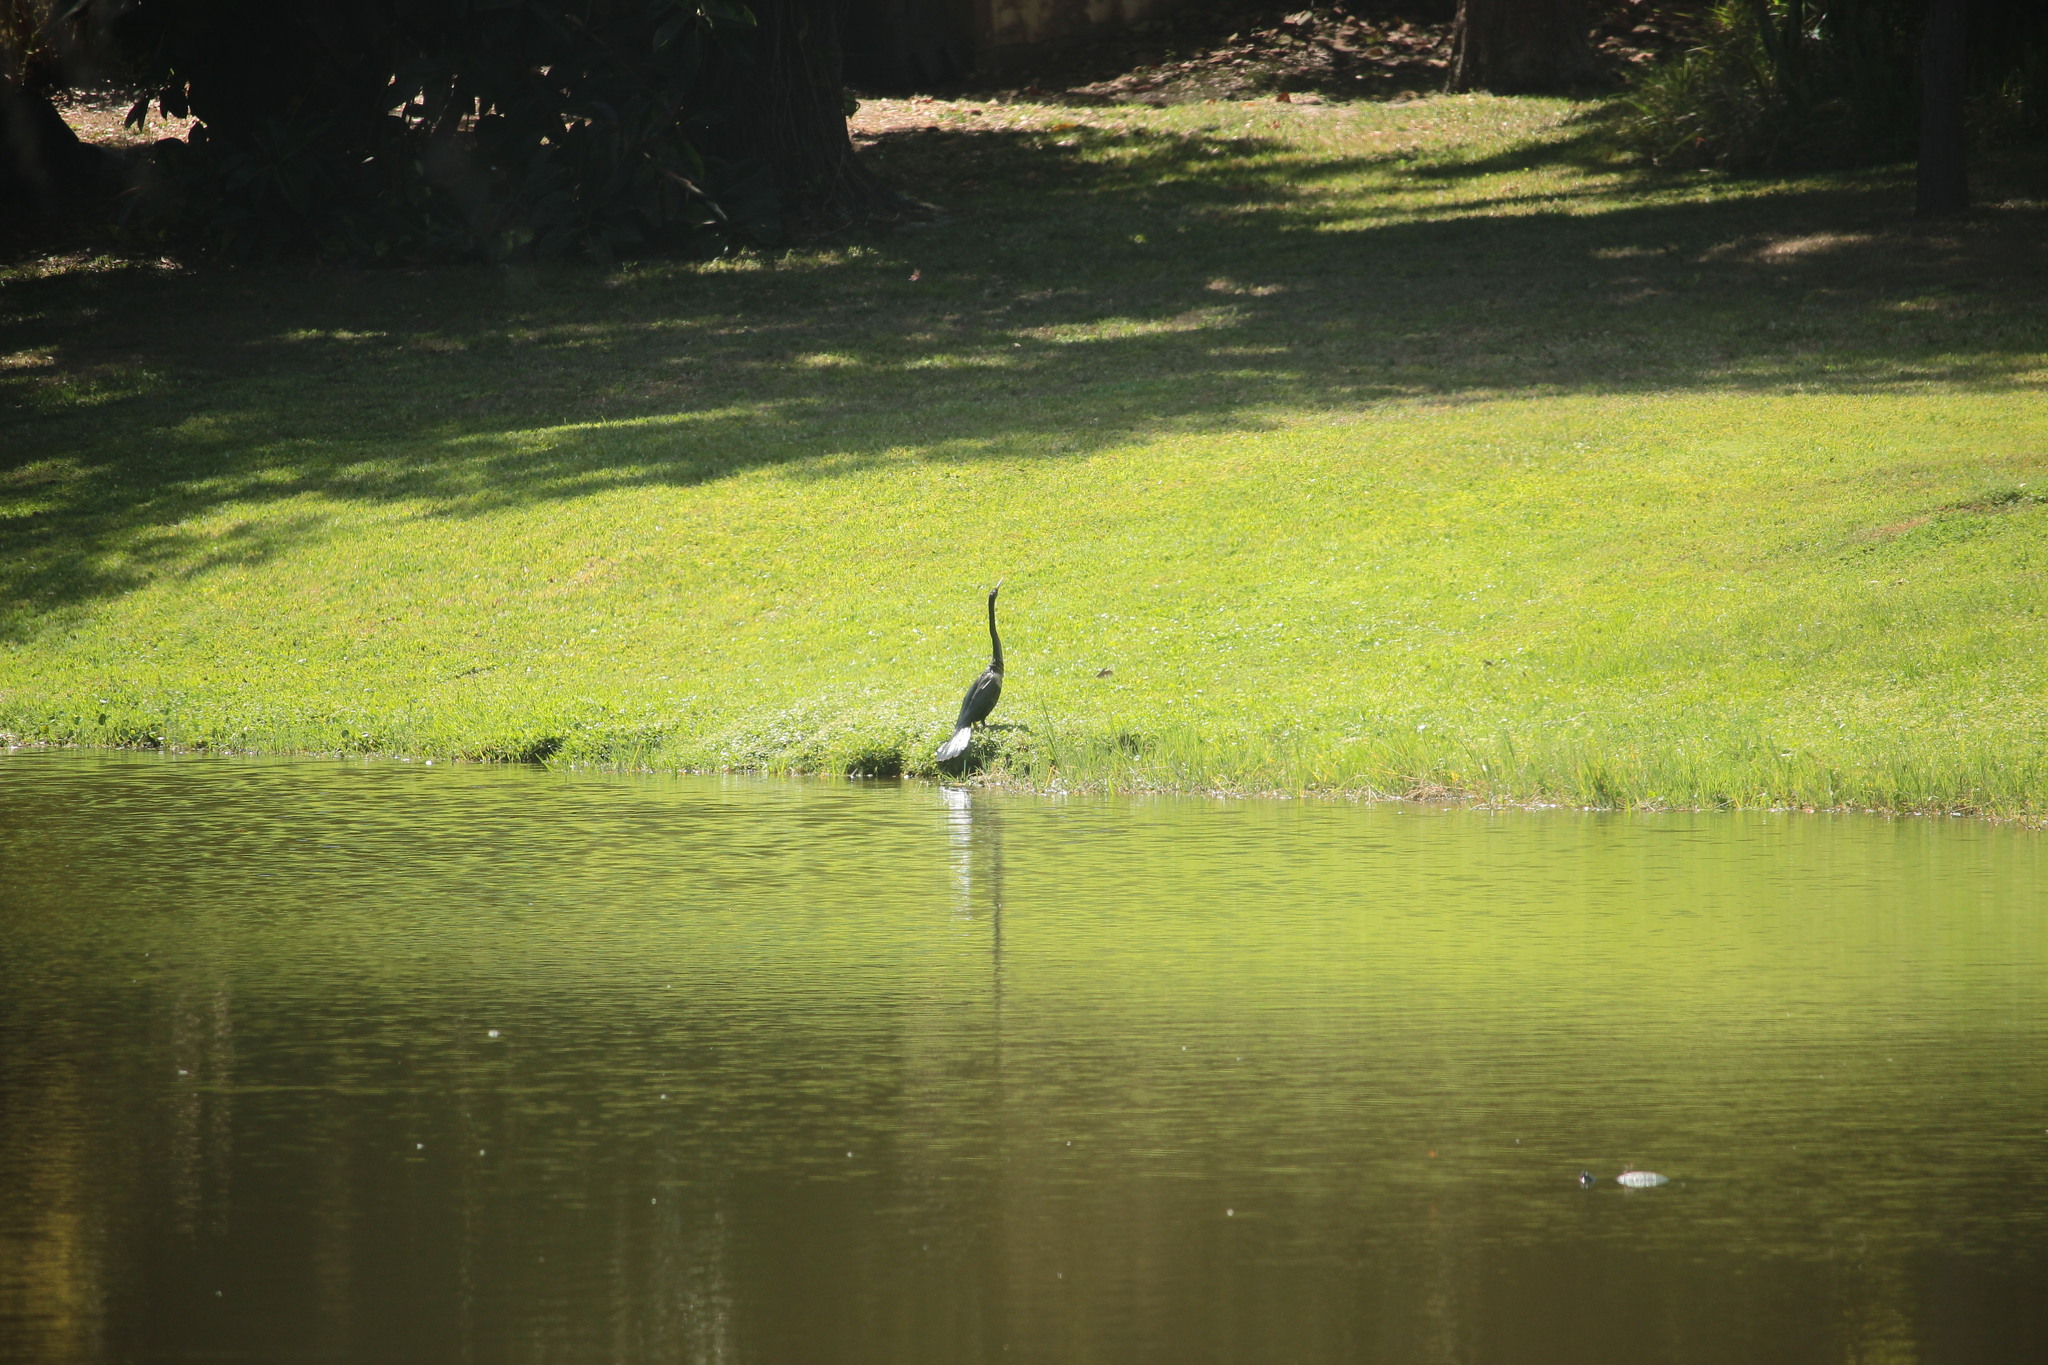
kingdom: Animalia
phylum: Chordata
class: Aves
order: Suliformes
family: Anhingidae
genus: Anhinga
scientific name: Anhinga anhinga
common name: Anhinga
